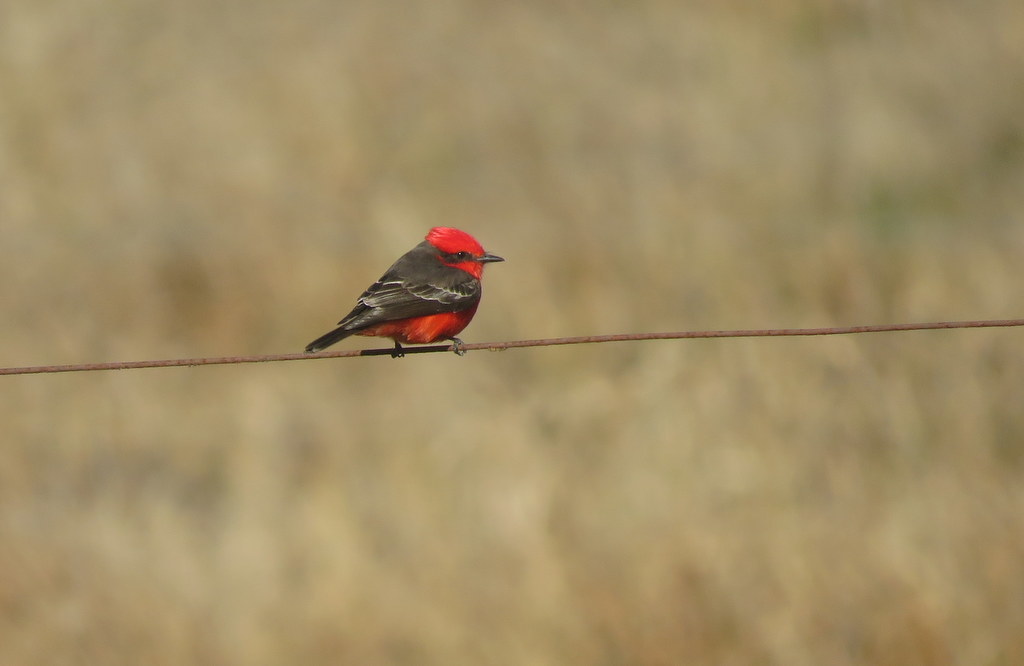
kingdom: Animalia
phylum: Chordata
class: Aves
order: Passeriformes
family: Tyrannidae
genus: Pyrocephalus
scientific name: Pyrocephalus rubinus
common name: Vermilion flycatcher
